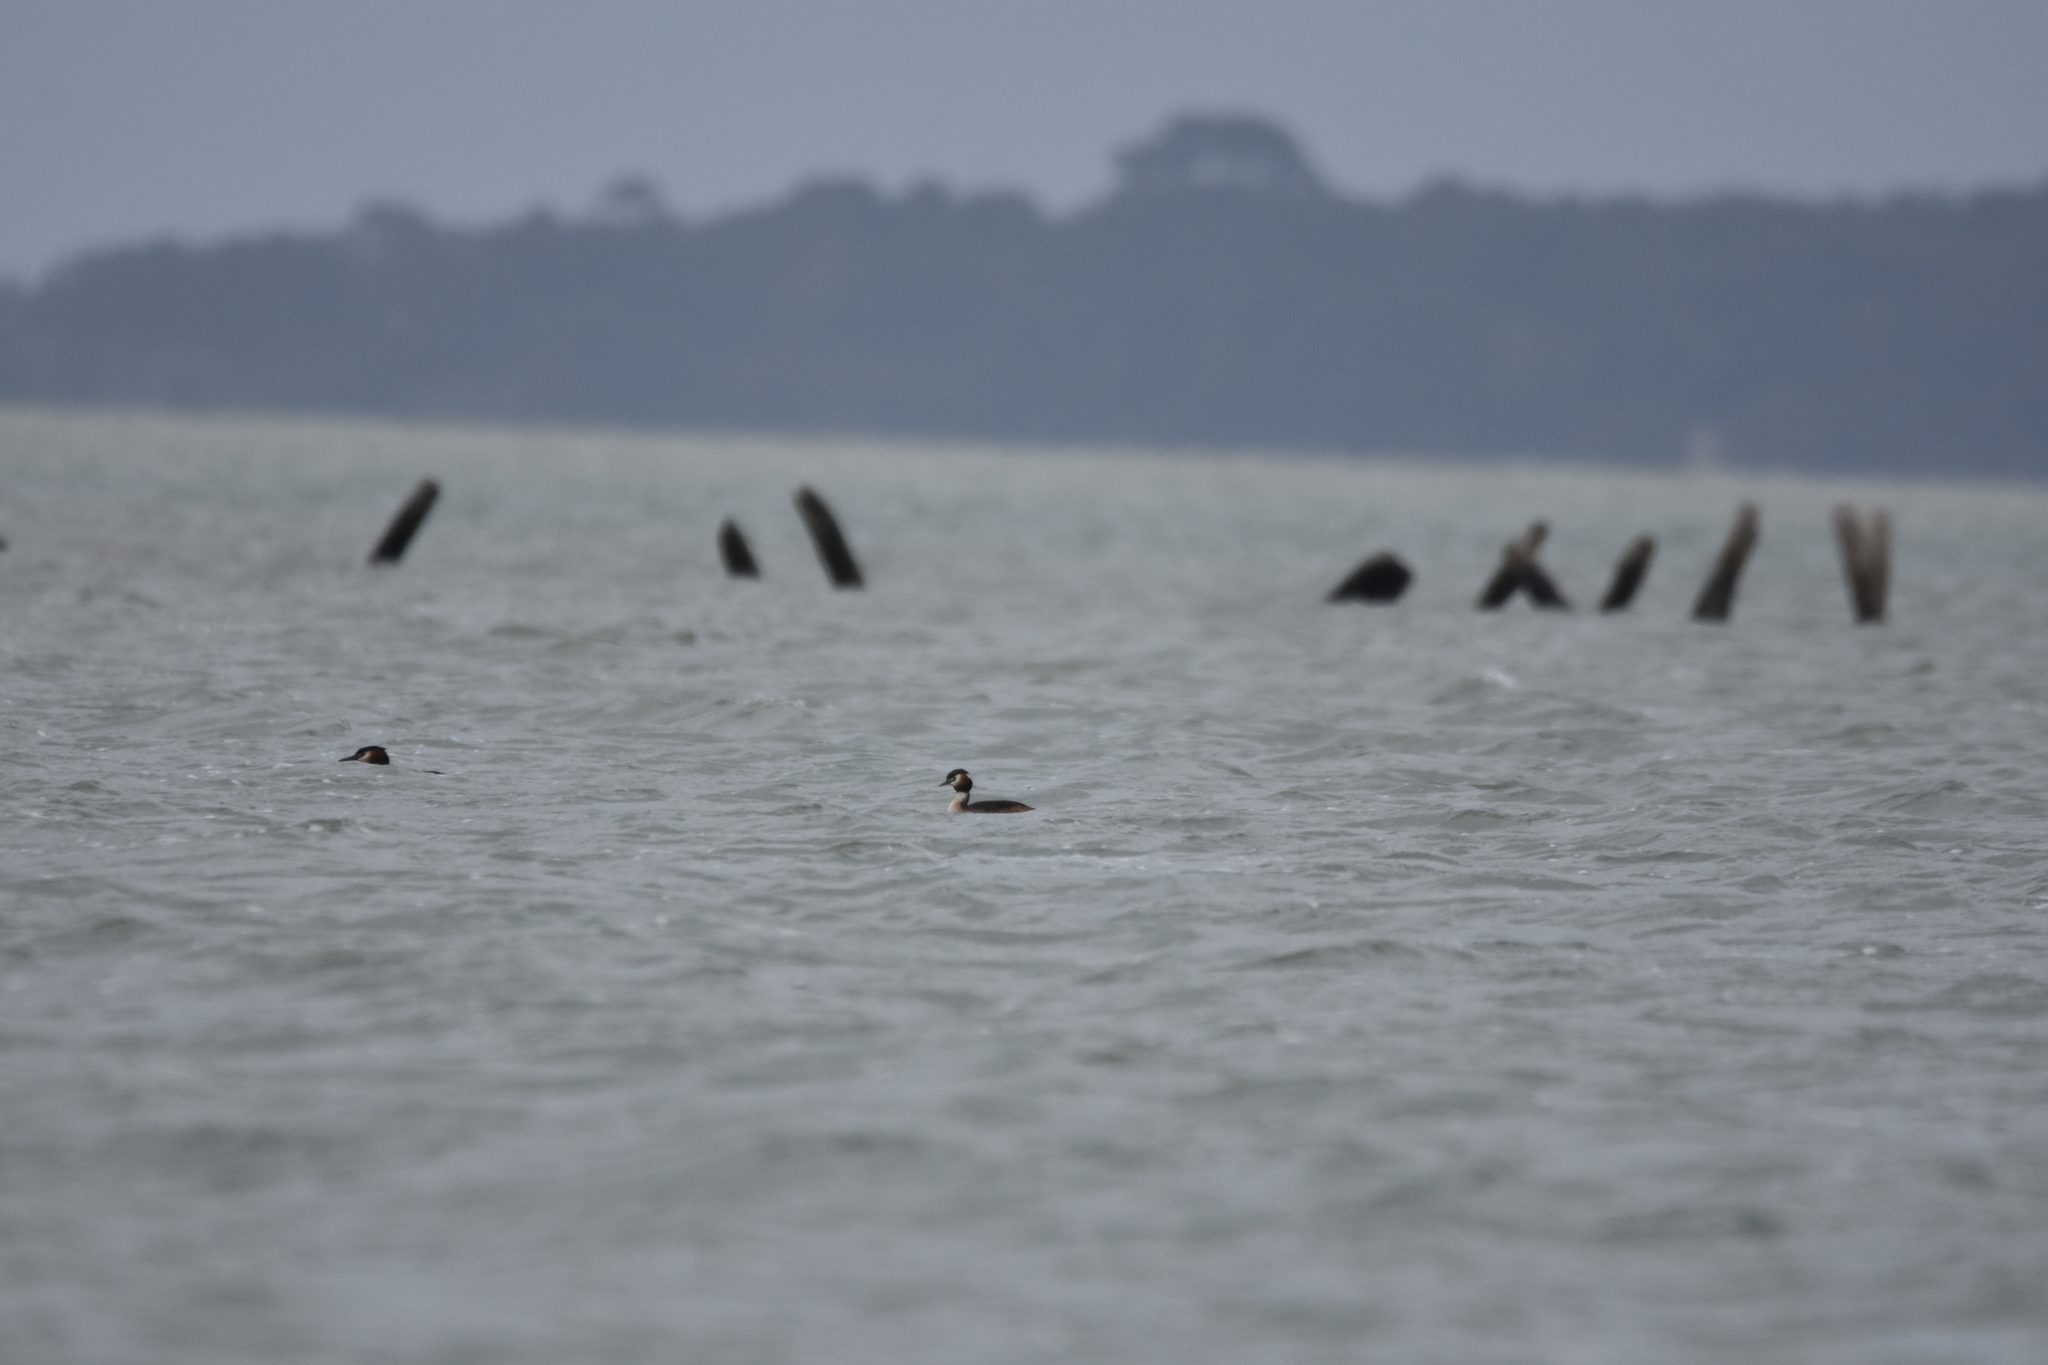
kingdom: Animalia
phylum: Chordata
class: Aves
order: Podicipediformes
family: Podicipedidae
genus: Podiceps
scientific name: Podiceps cristatus
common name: Great crested grebe
